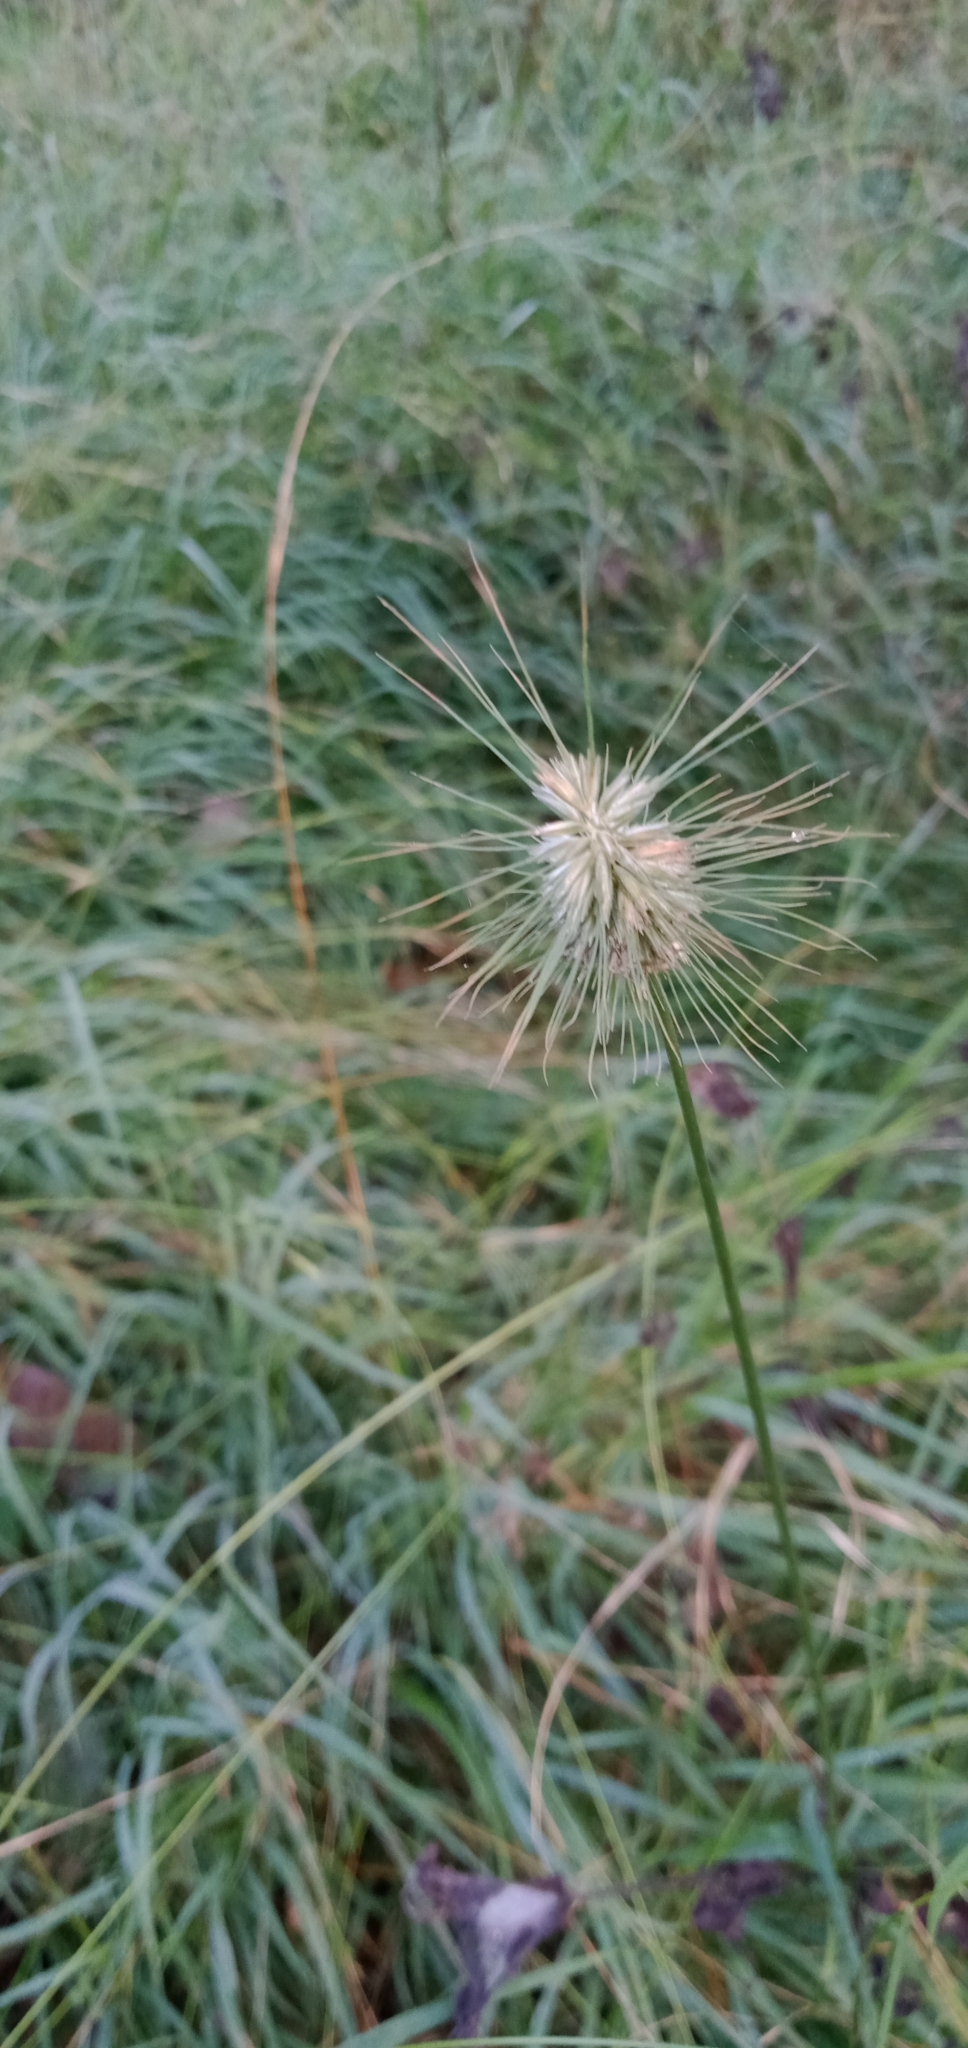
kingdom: Plantae
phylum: Tracheophyta
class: Liliopsida
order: Poales
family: Poaceae
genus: Echinopogon
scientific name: Echinopogon
